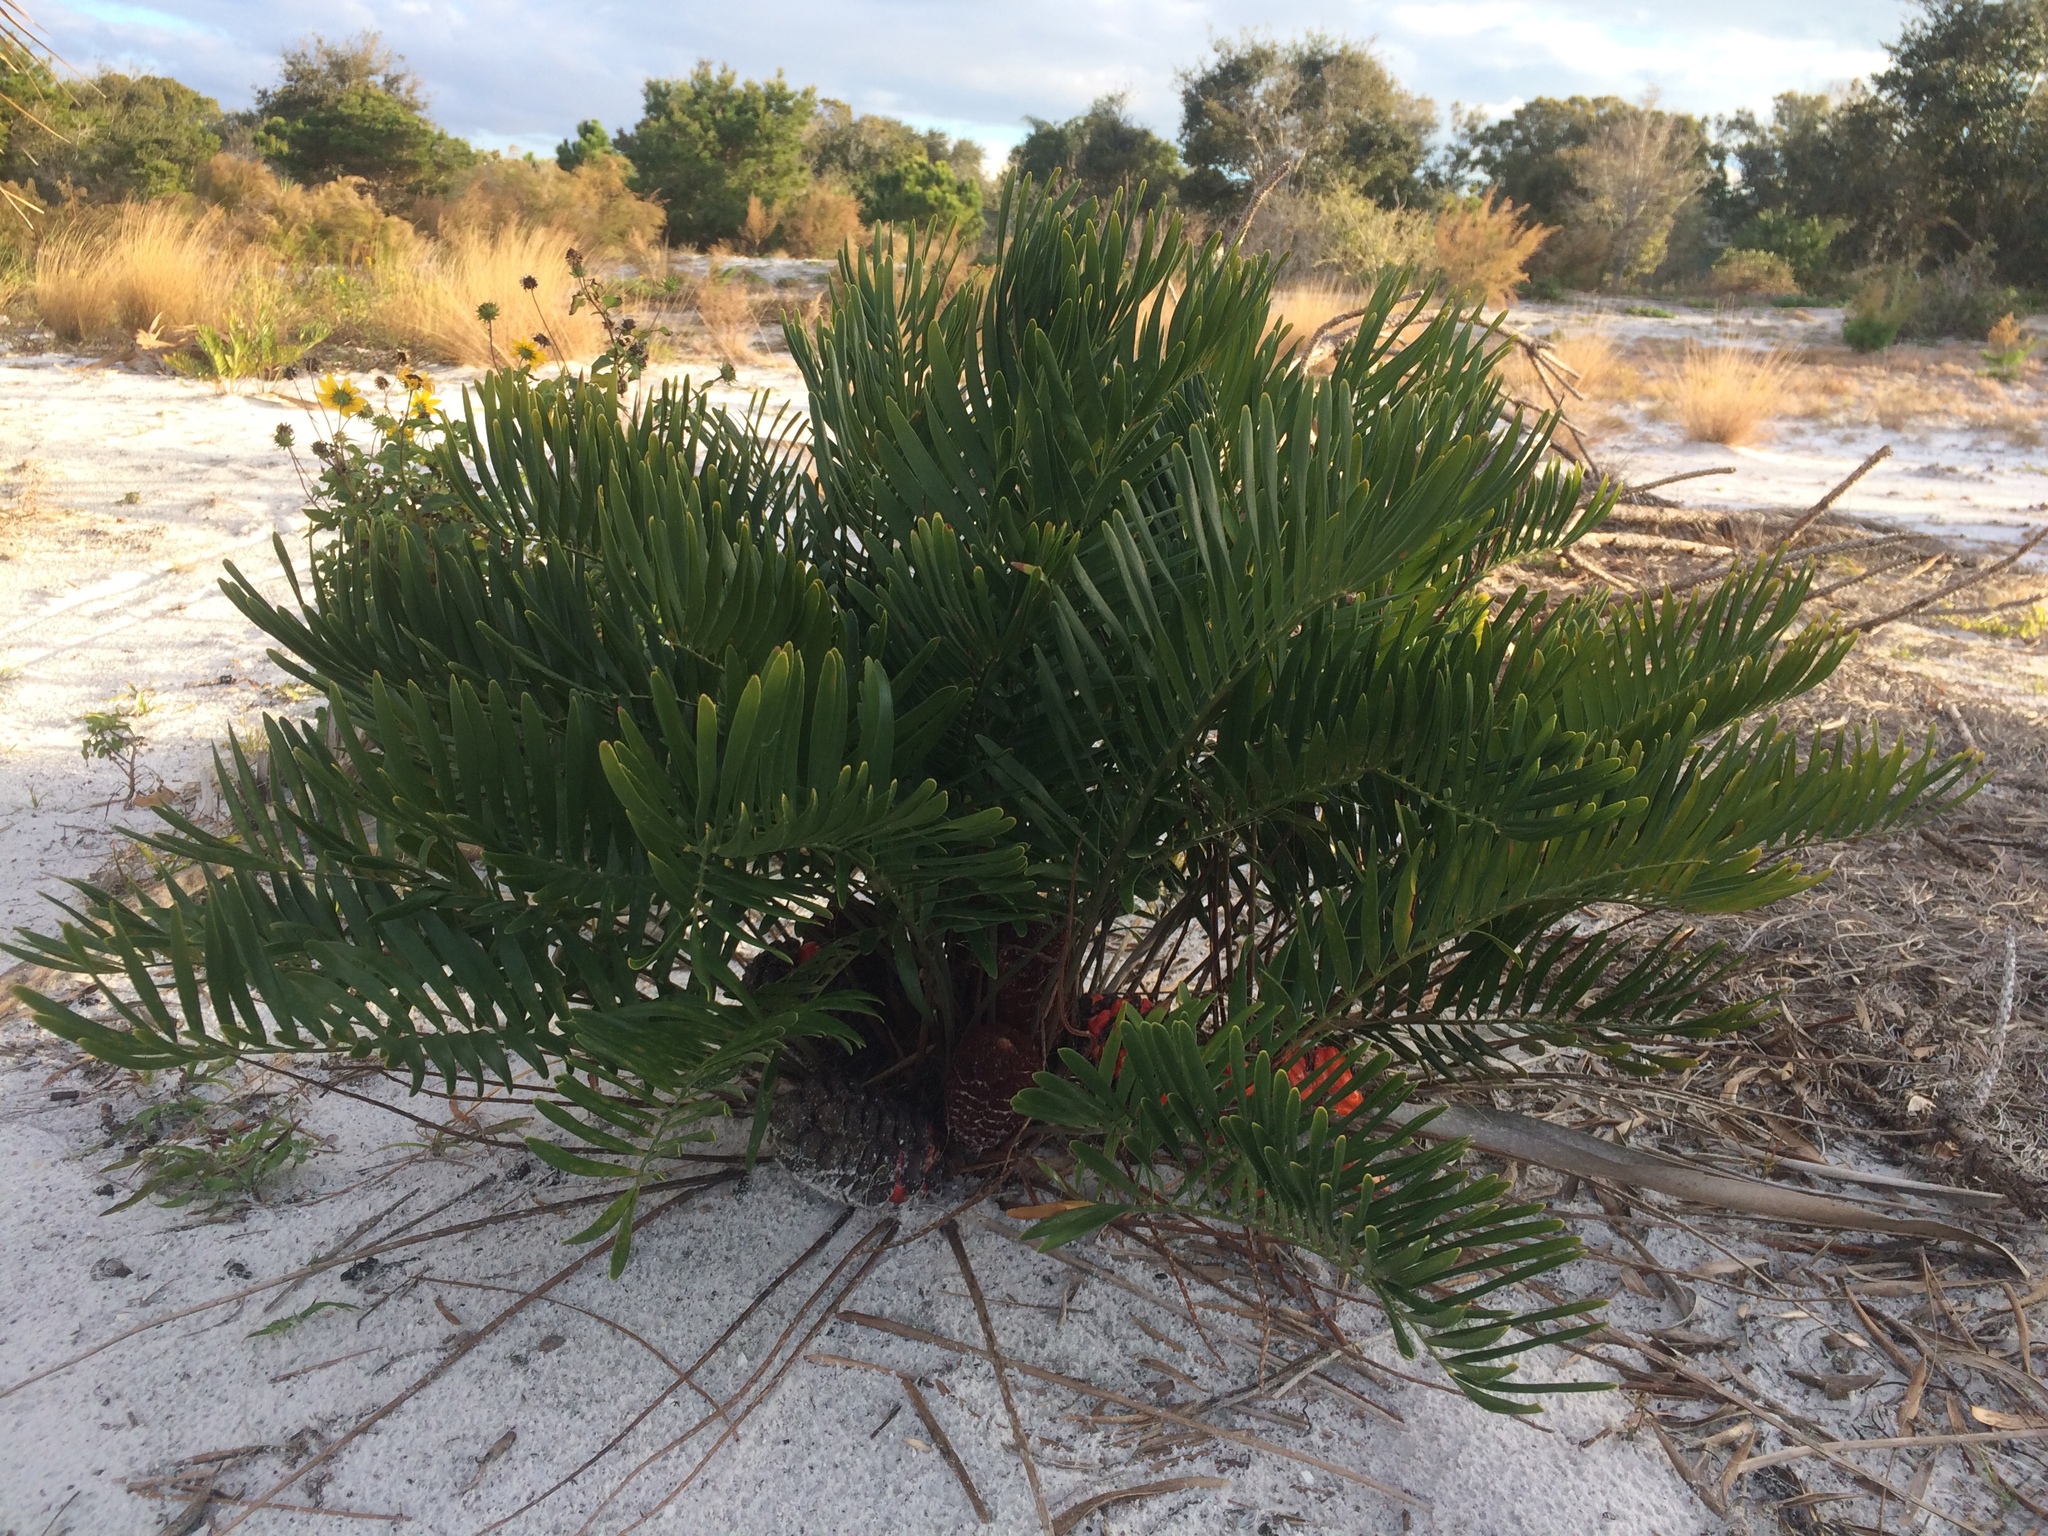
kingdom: Plantae
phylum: Tracheophyta
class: Cycadopsida
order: Cycadales
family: Zamiaceae
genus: Zamia
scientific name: Zamia integrifolia
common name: Florida arrowroot
